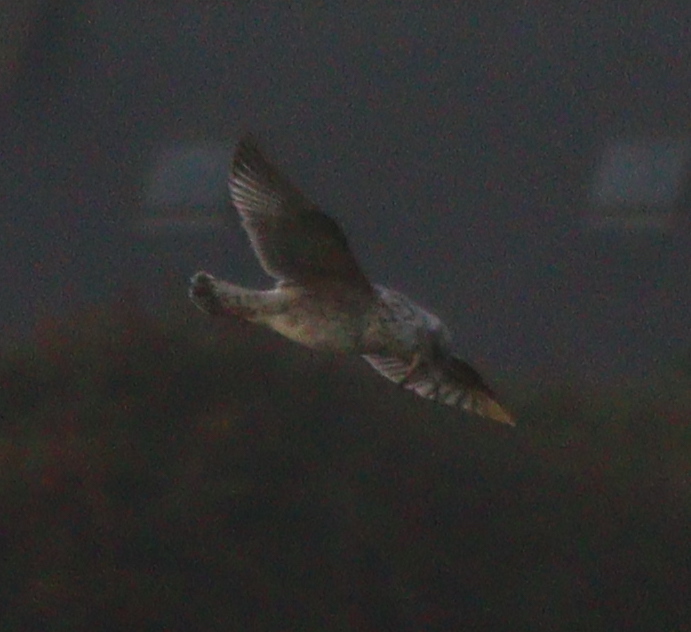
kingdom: Animalia
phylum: Chordata
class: Aves
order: Charadriiformes
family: Laridae
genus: Larus
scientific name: Larus argentatus
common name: Herring gull
